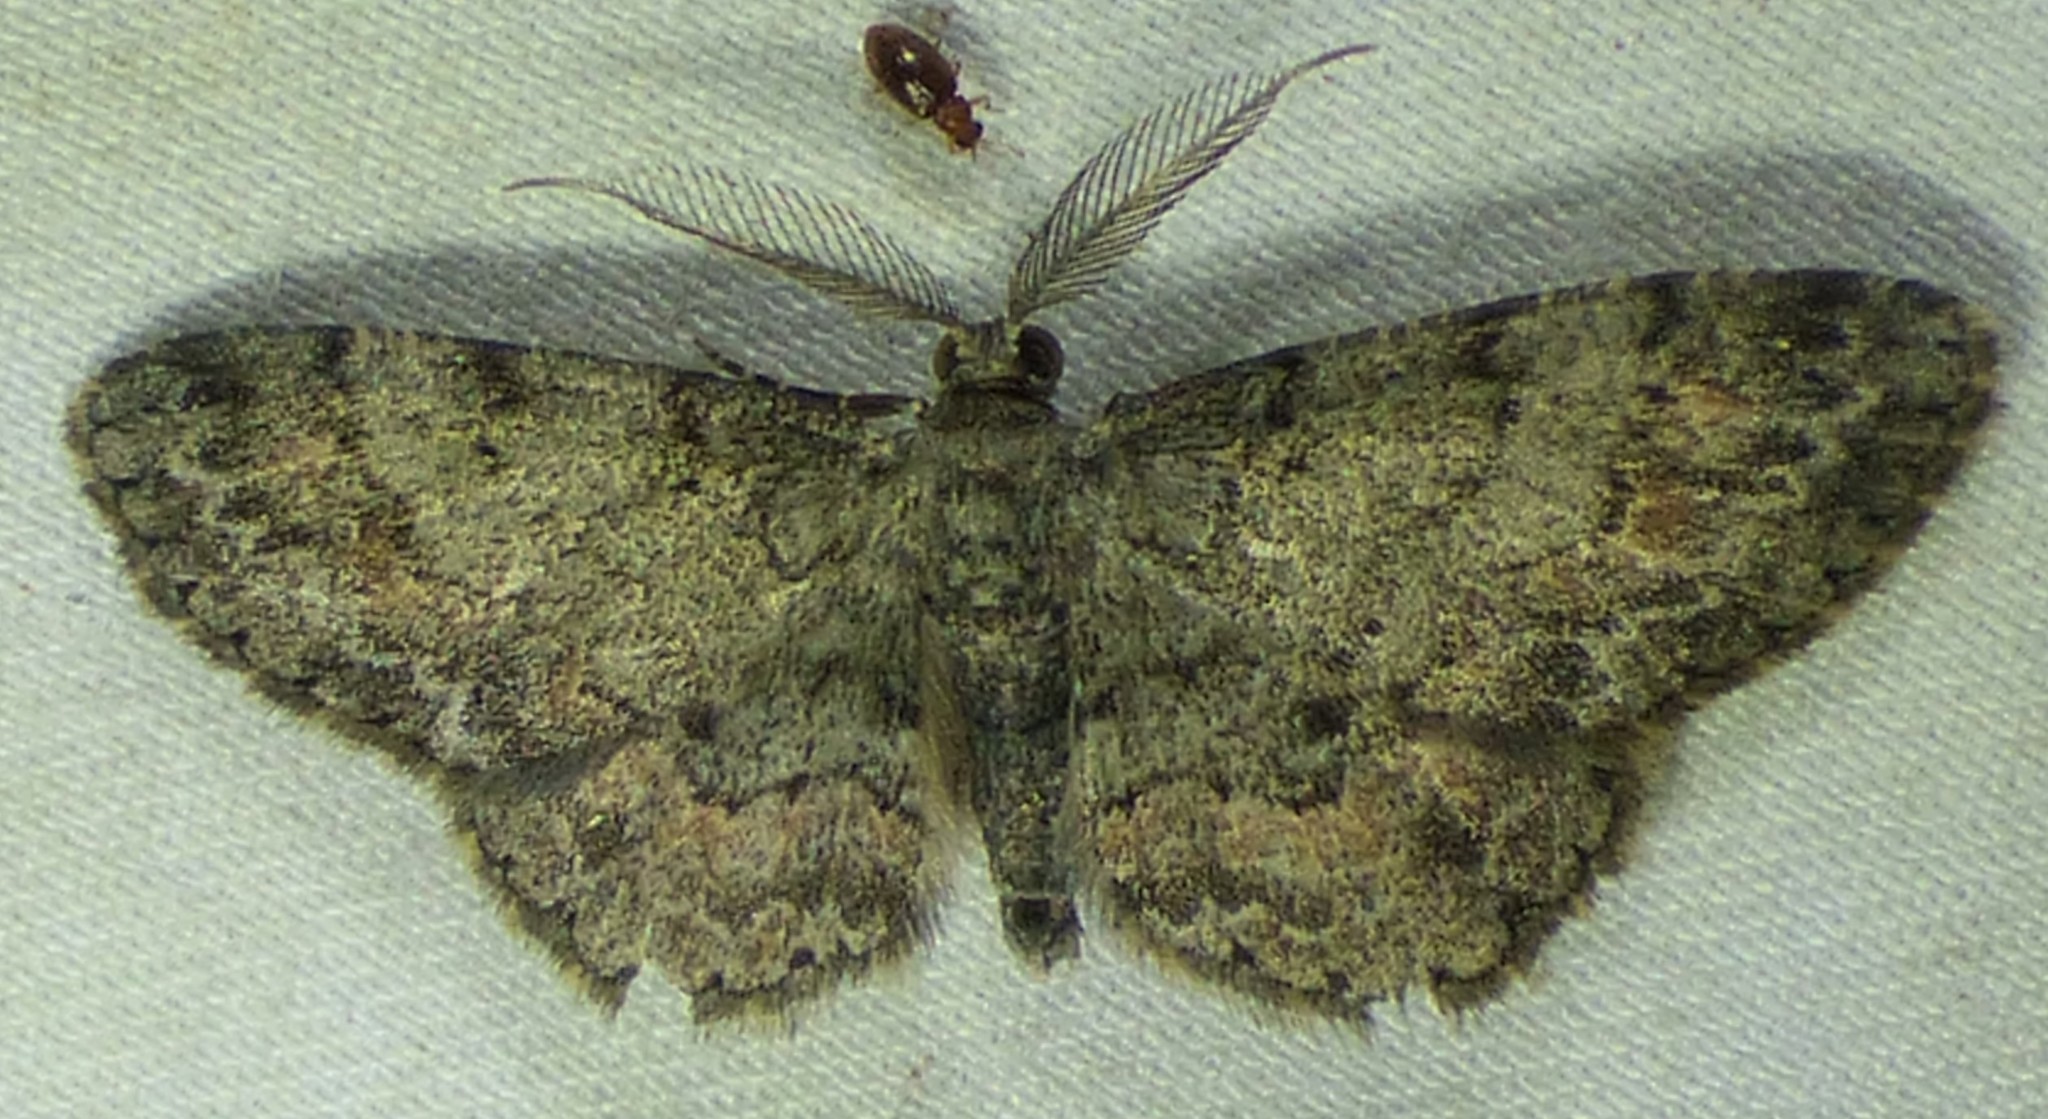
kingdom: Animalia
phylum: Arthropoda
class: Insecta
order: Lepidoptera
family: Geometridae
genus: Glenoides
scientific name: Glenoides texanaria
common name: Texas gray
